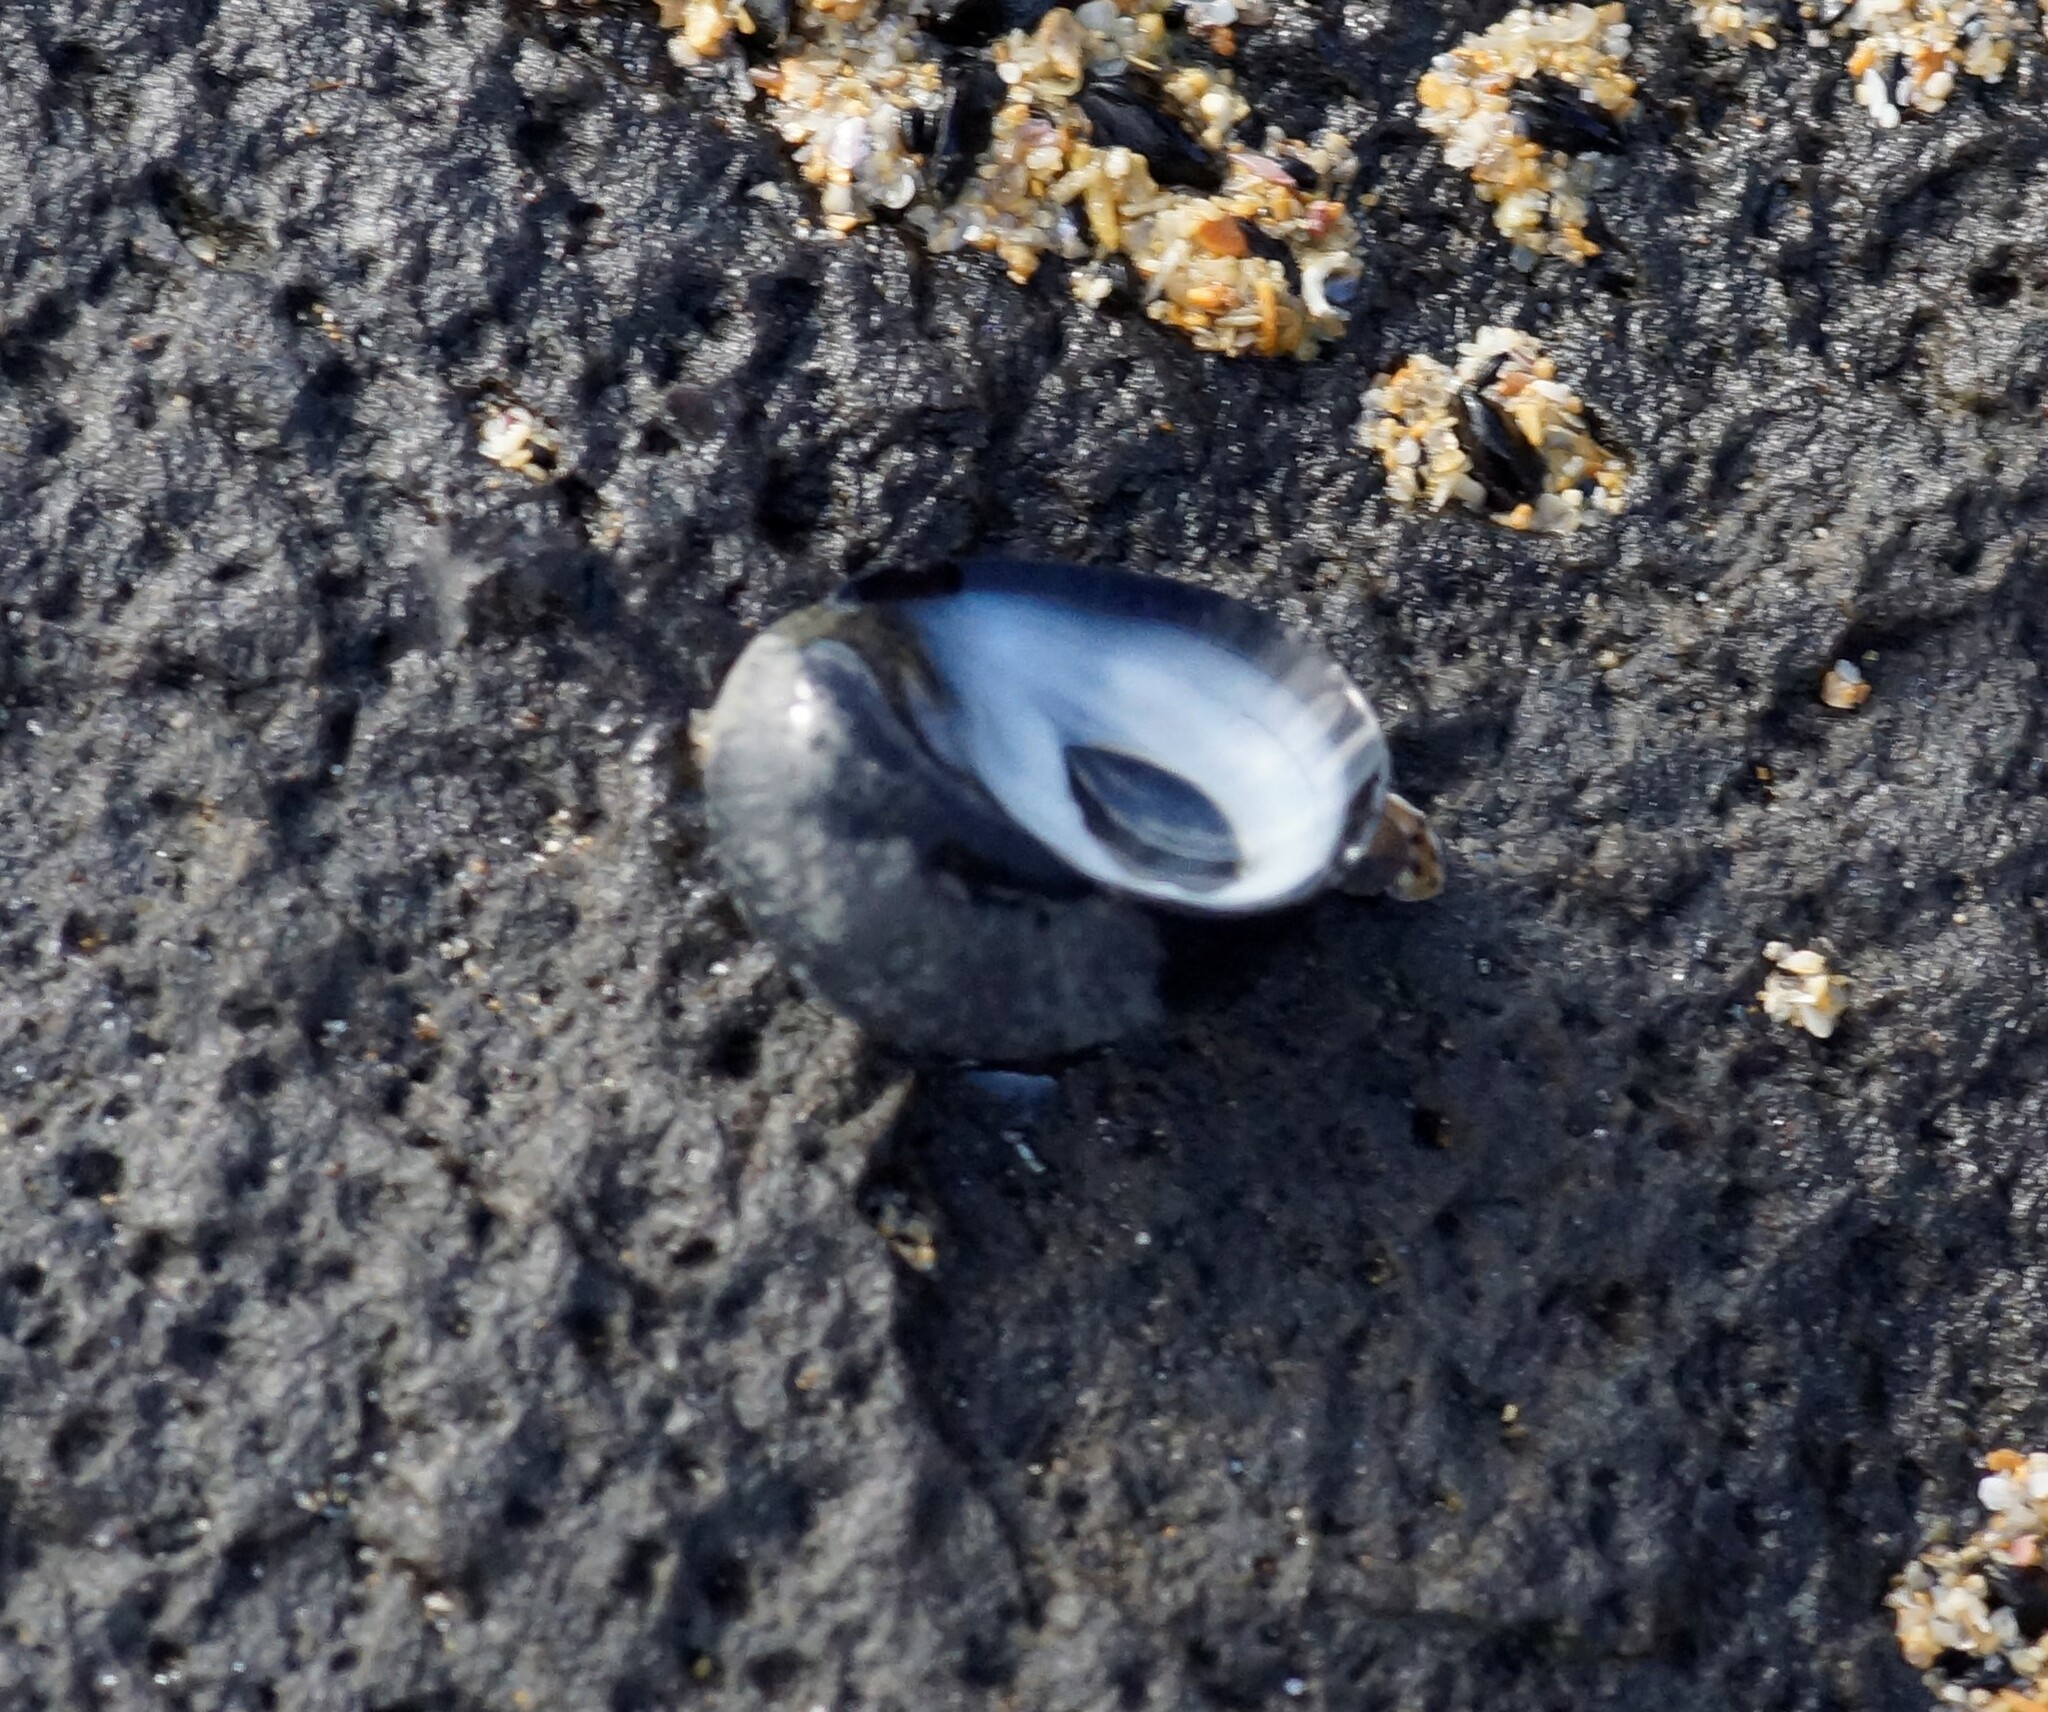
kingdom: Animalia
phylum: Mollusca
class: Gastropoda
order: Cycloneritida
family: Neritidae
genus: Nerita
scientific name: Nerita atramentosa
